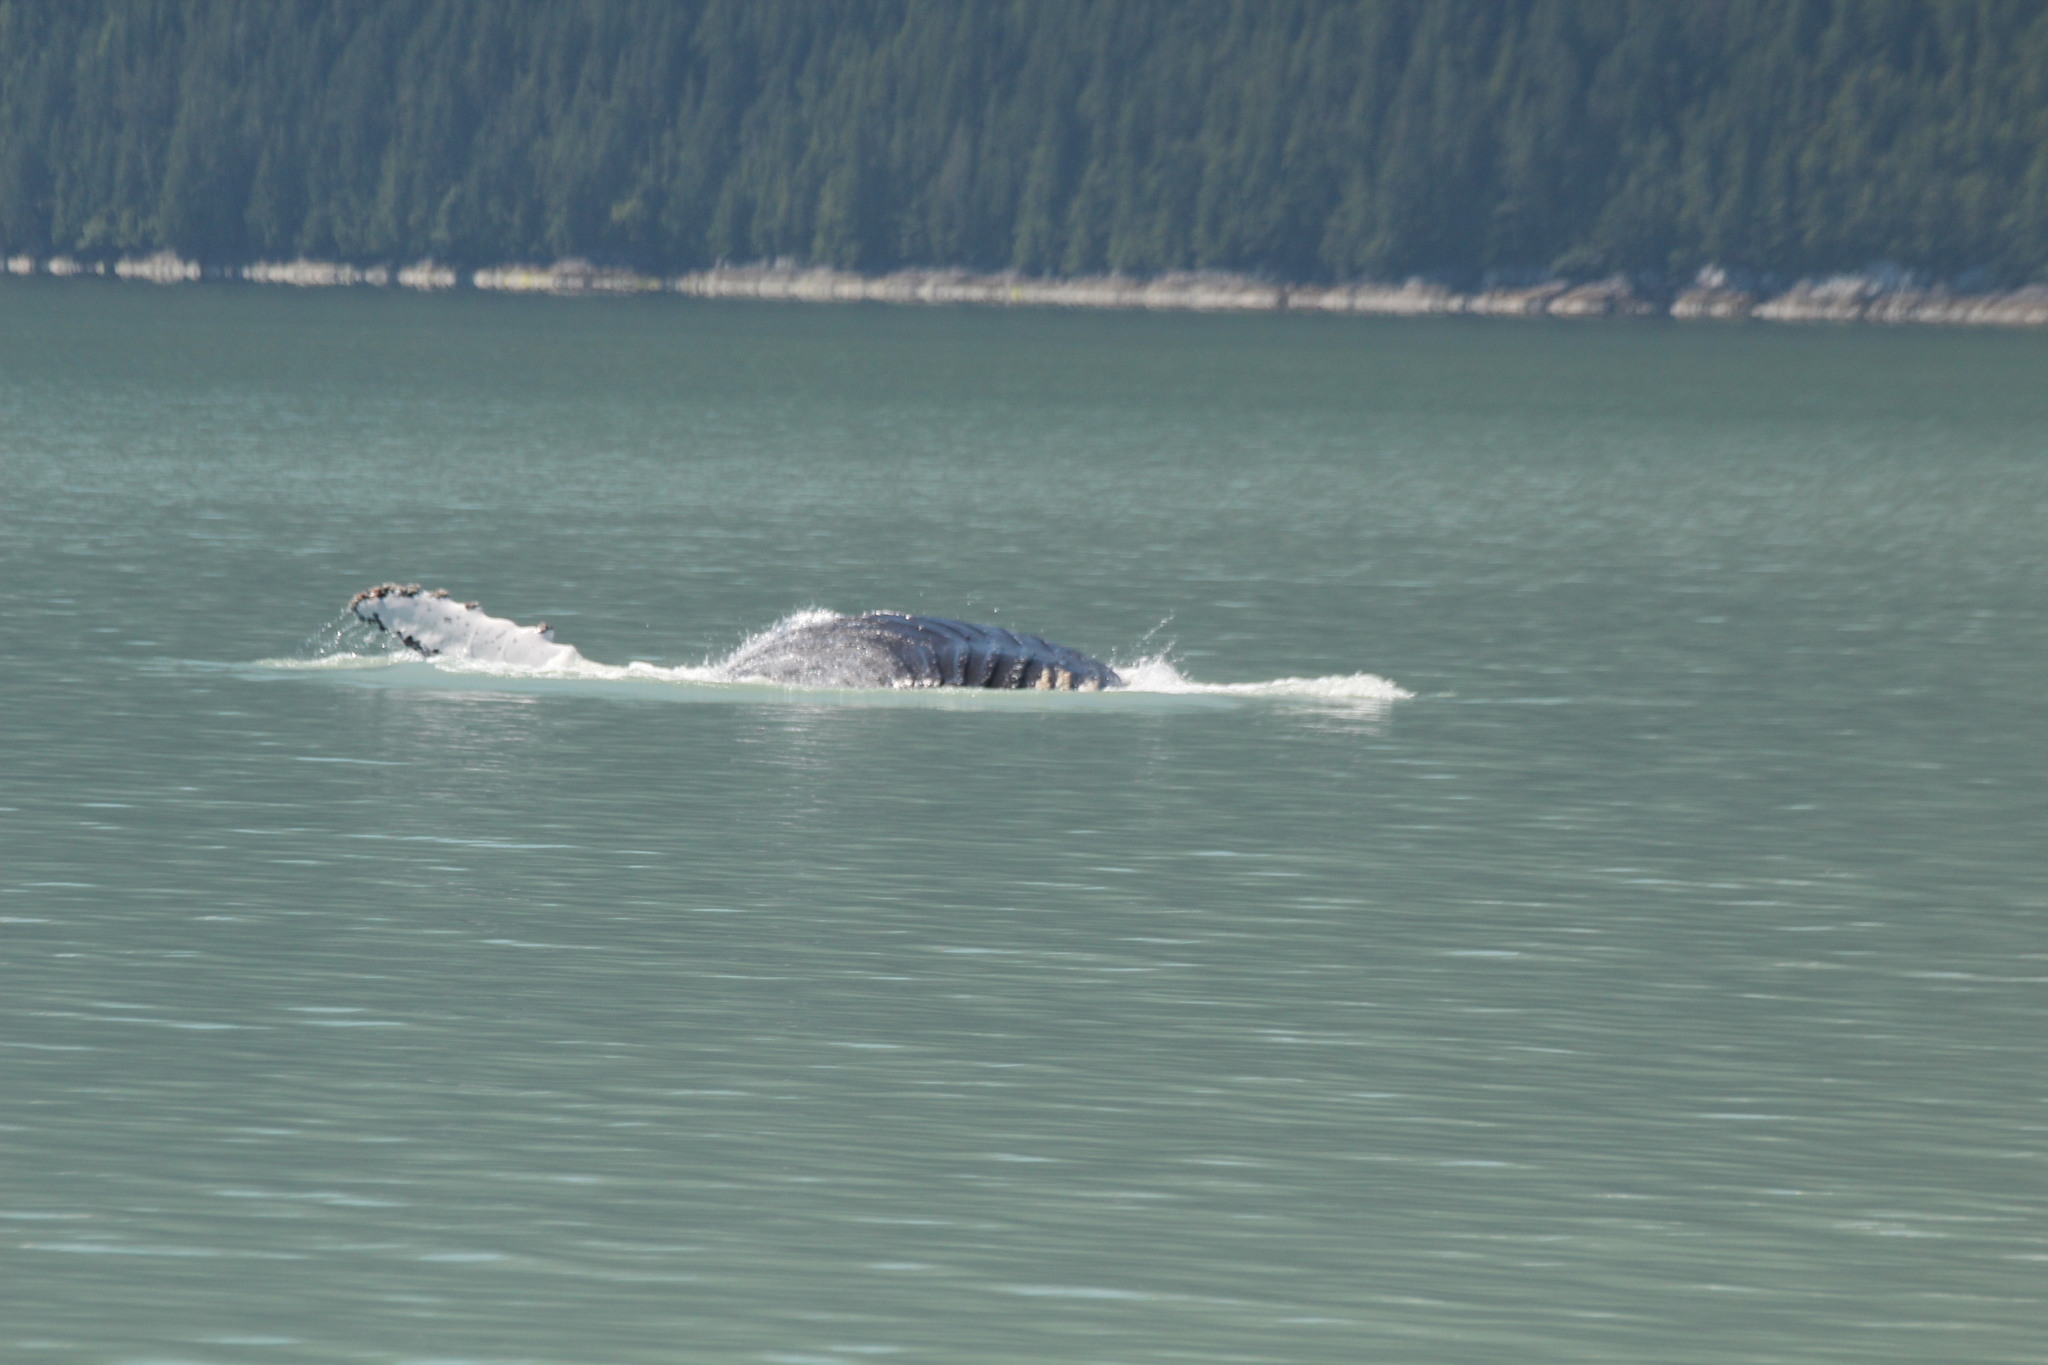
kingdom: Animalia
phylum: Chordata
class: Mammalia
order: Cetacea
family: Balaenopteridae
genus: Megaptera
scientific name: Megaptera novaeangliae
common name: Humpback whale
